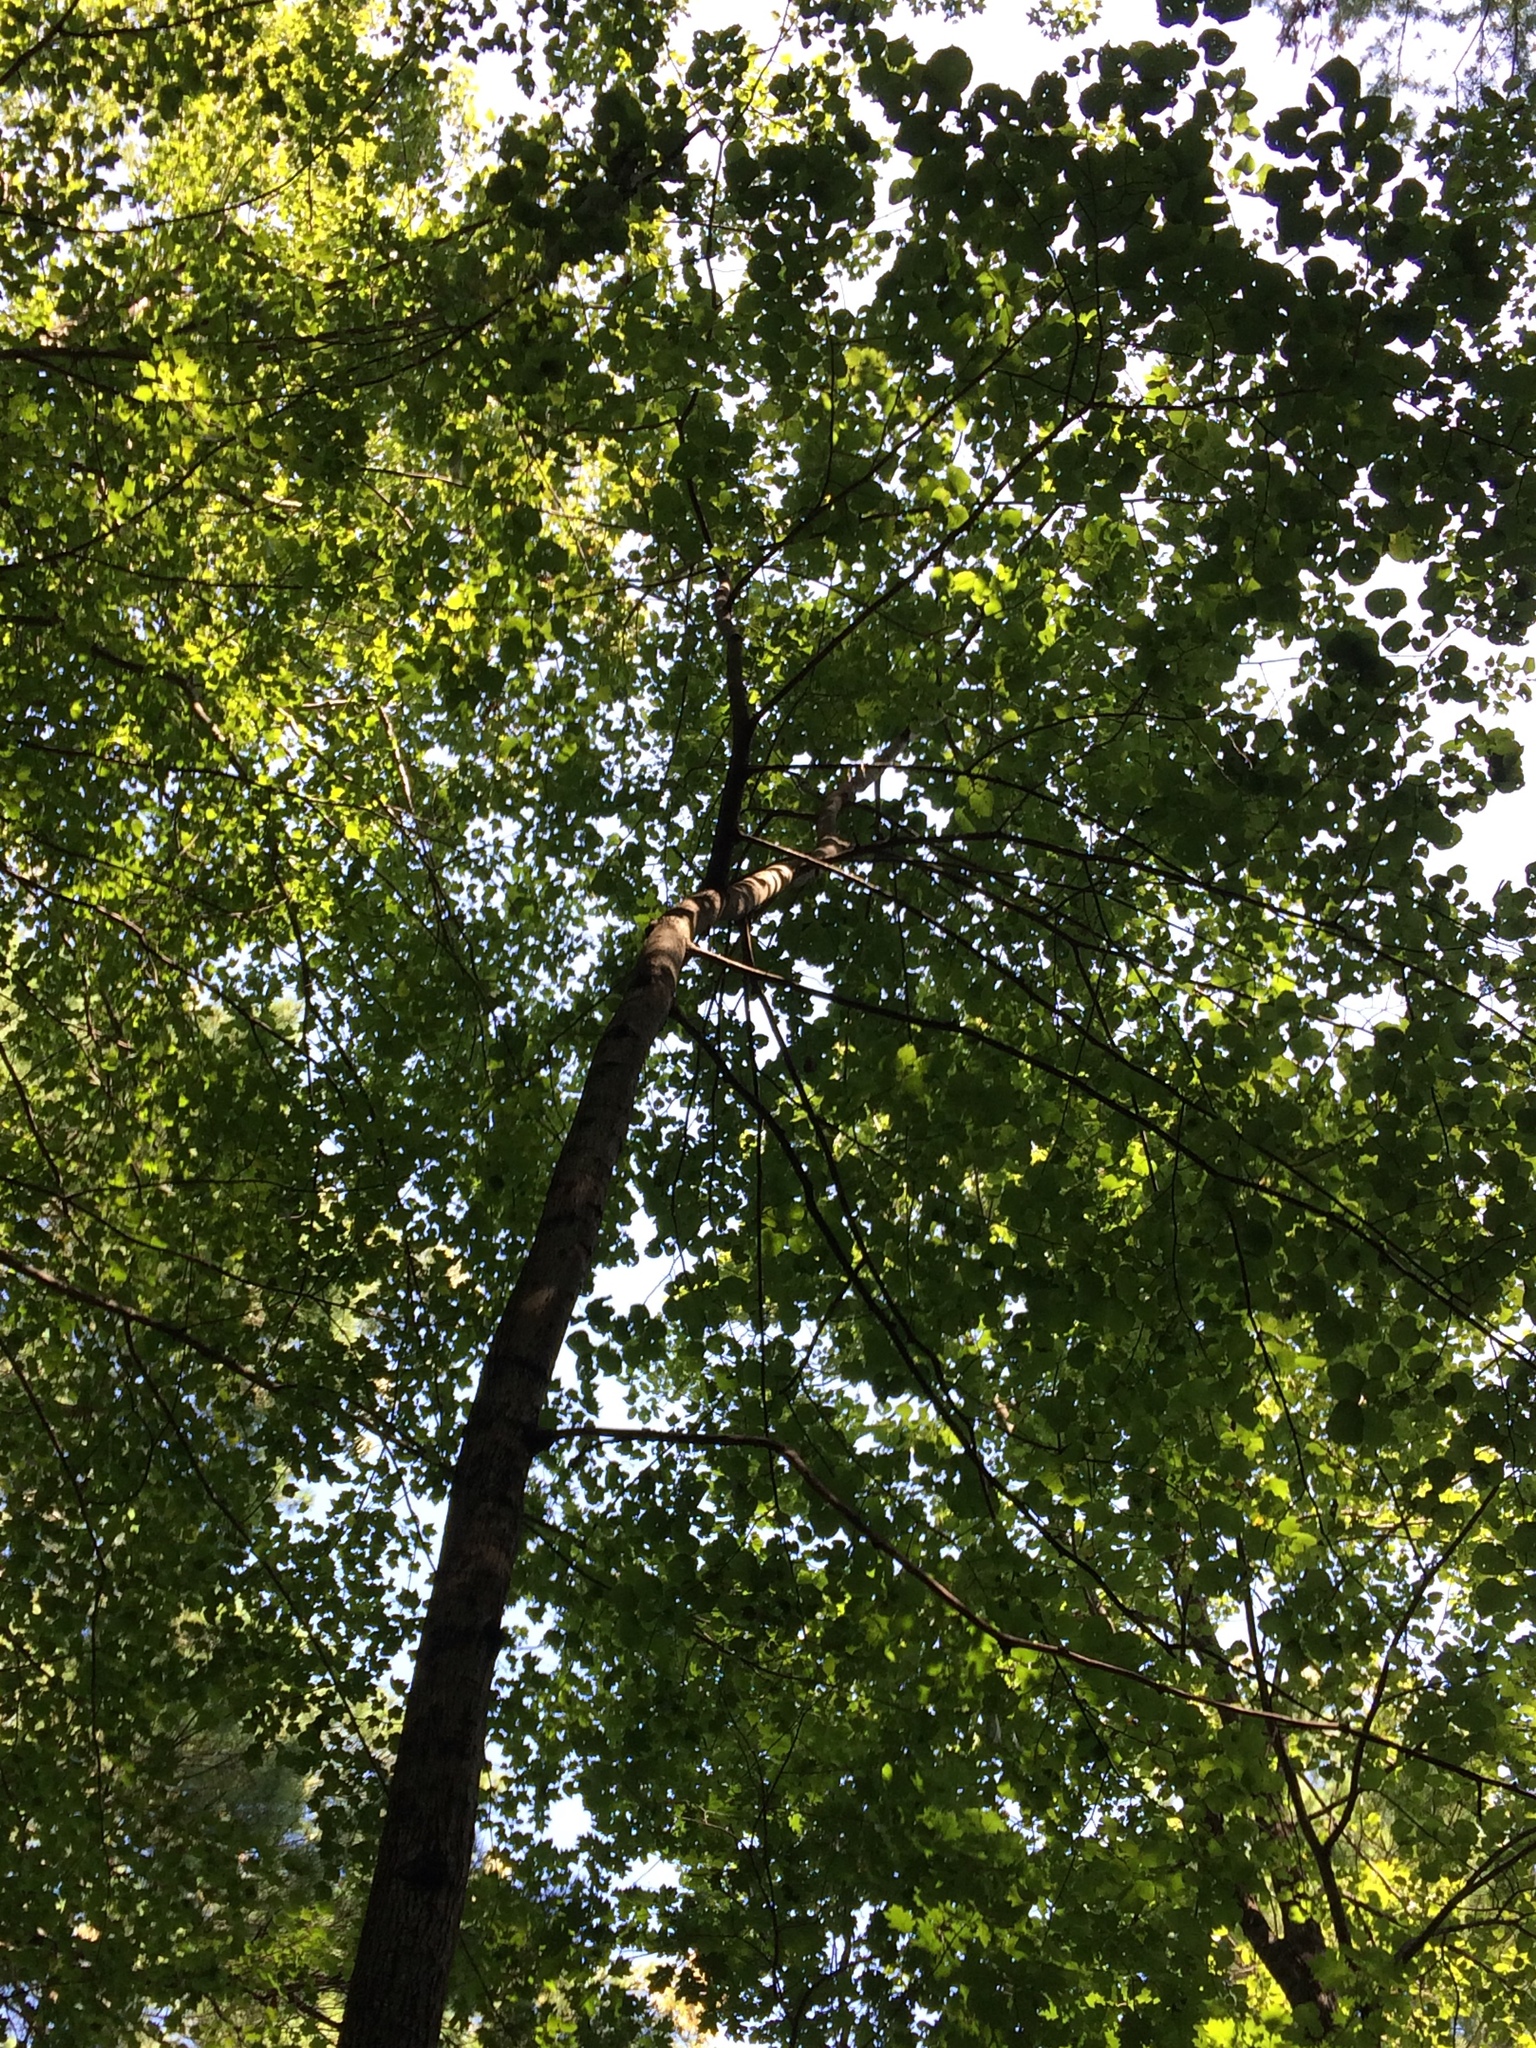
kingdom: Plantae
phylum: Tracheophyta
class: Magnoliopsida
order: Malvales
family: Malvaceae
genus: Tilia
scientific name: Tilia americana
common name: Basswood
